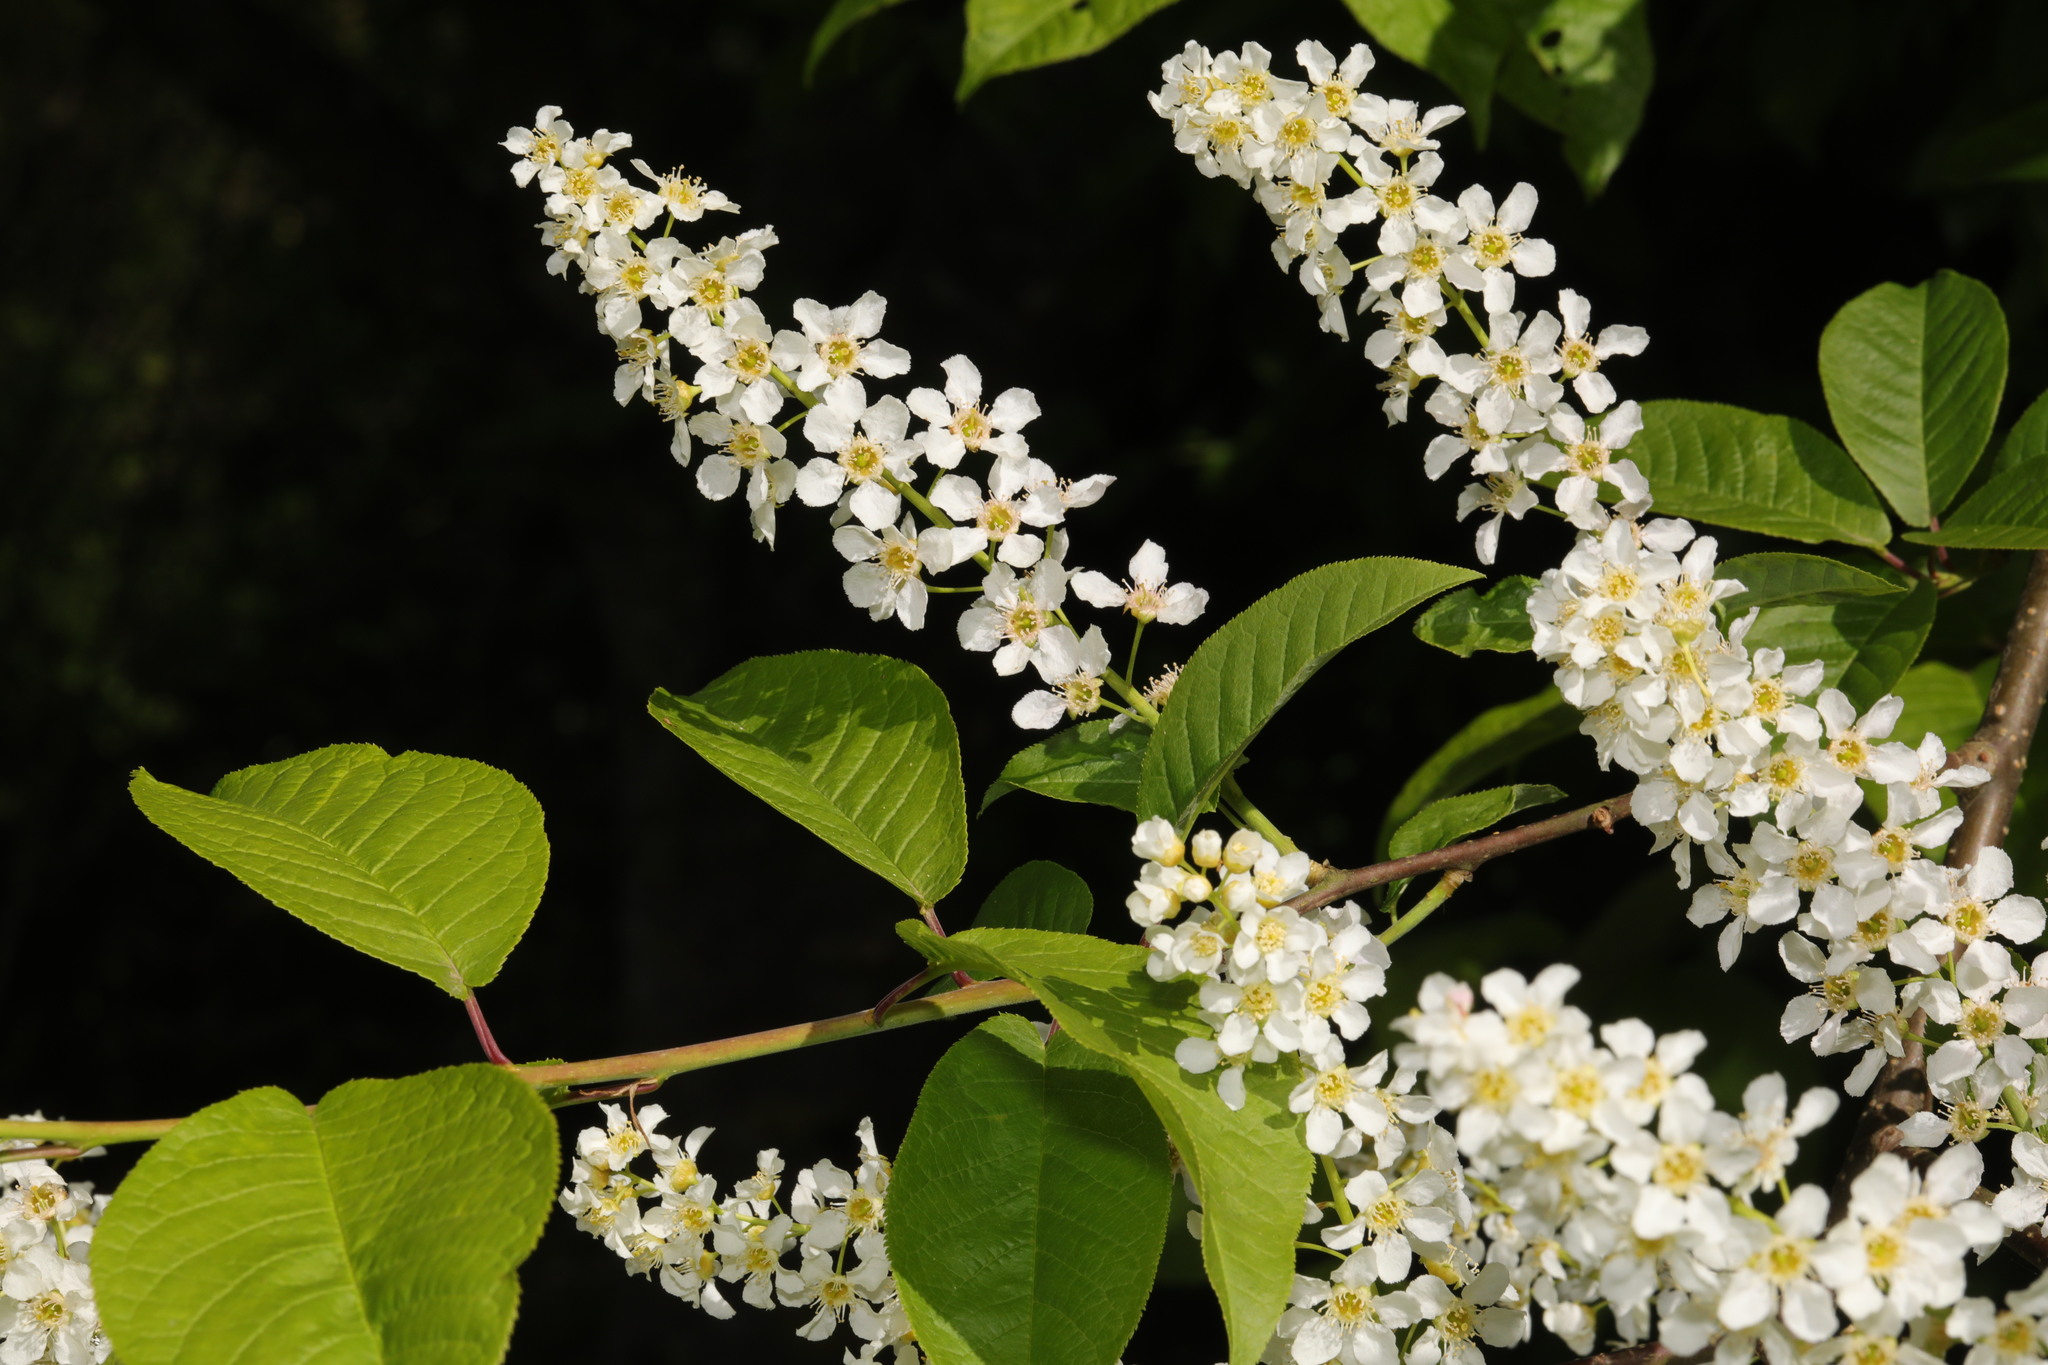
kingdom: Plantae
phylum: Tracheophyta
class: Magnoliopsida
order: Rosales
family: Rosaceae
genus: Prunus
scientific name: Prunus padus
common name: Bird cherry
